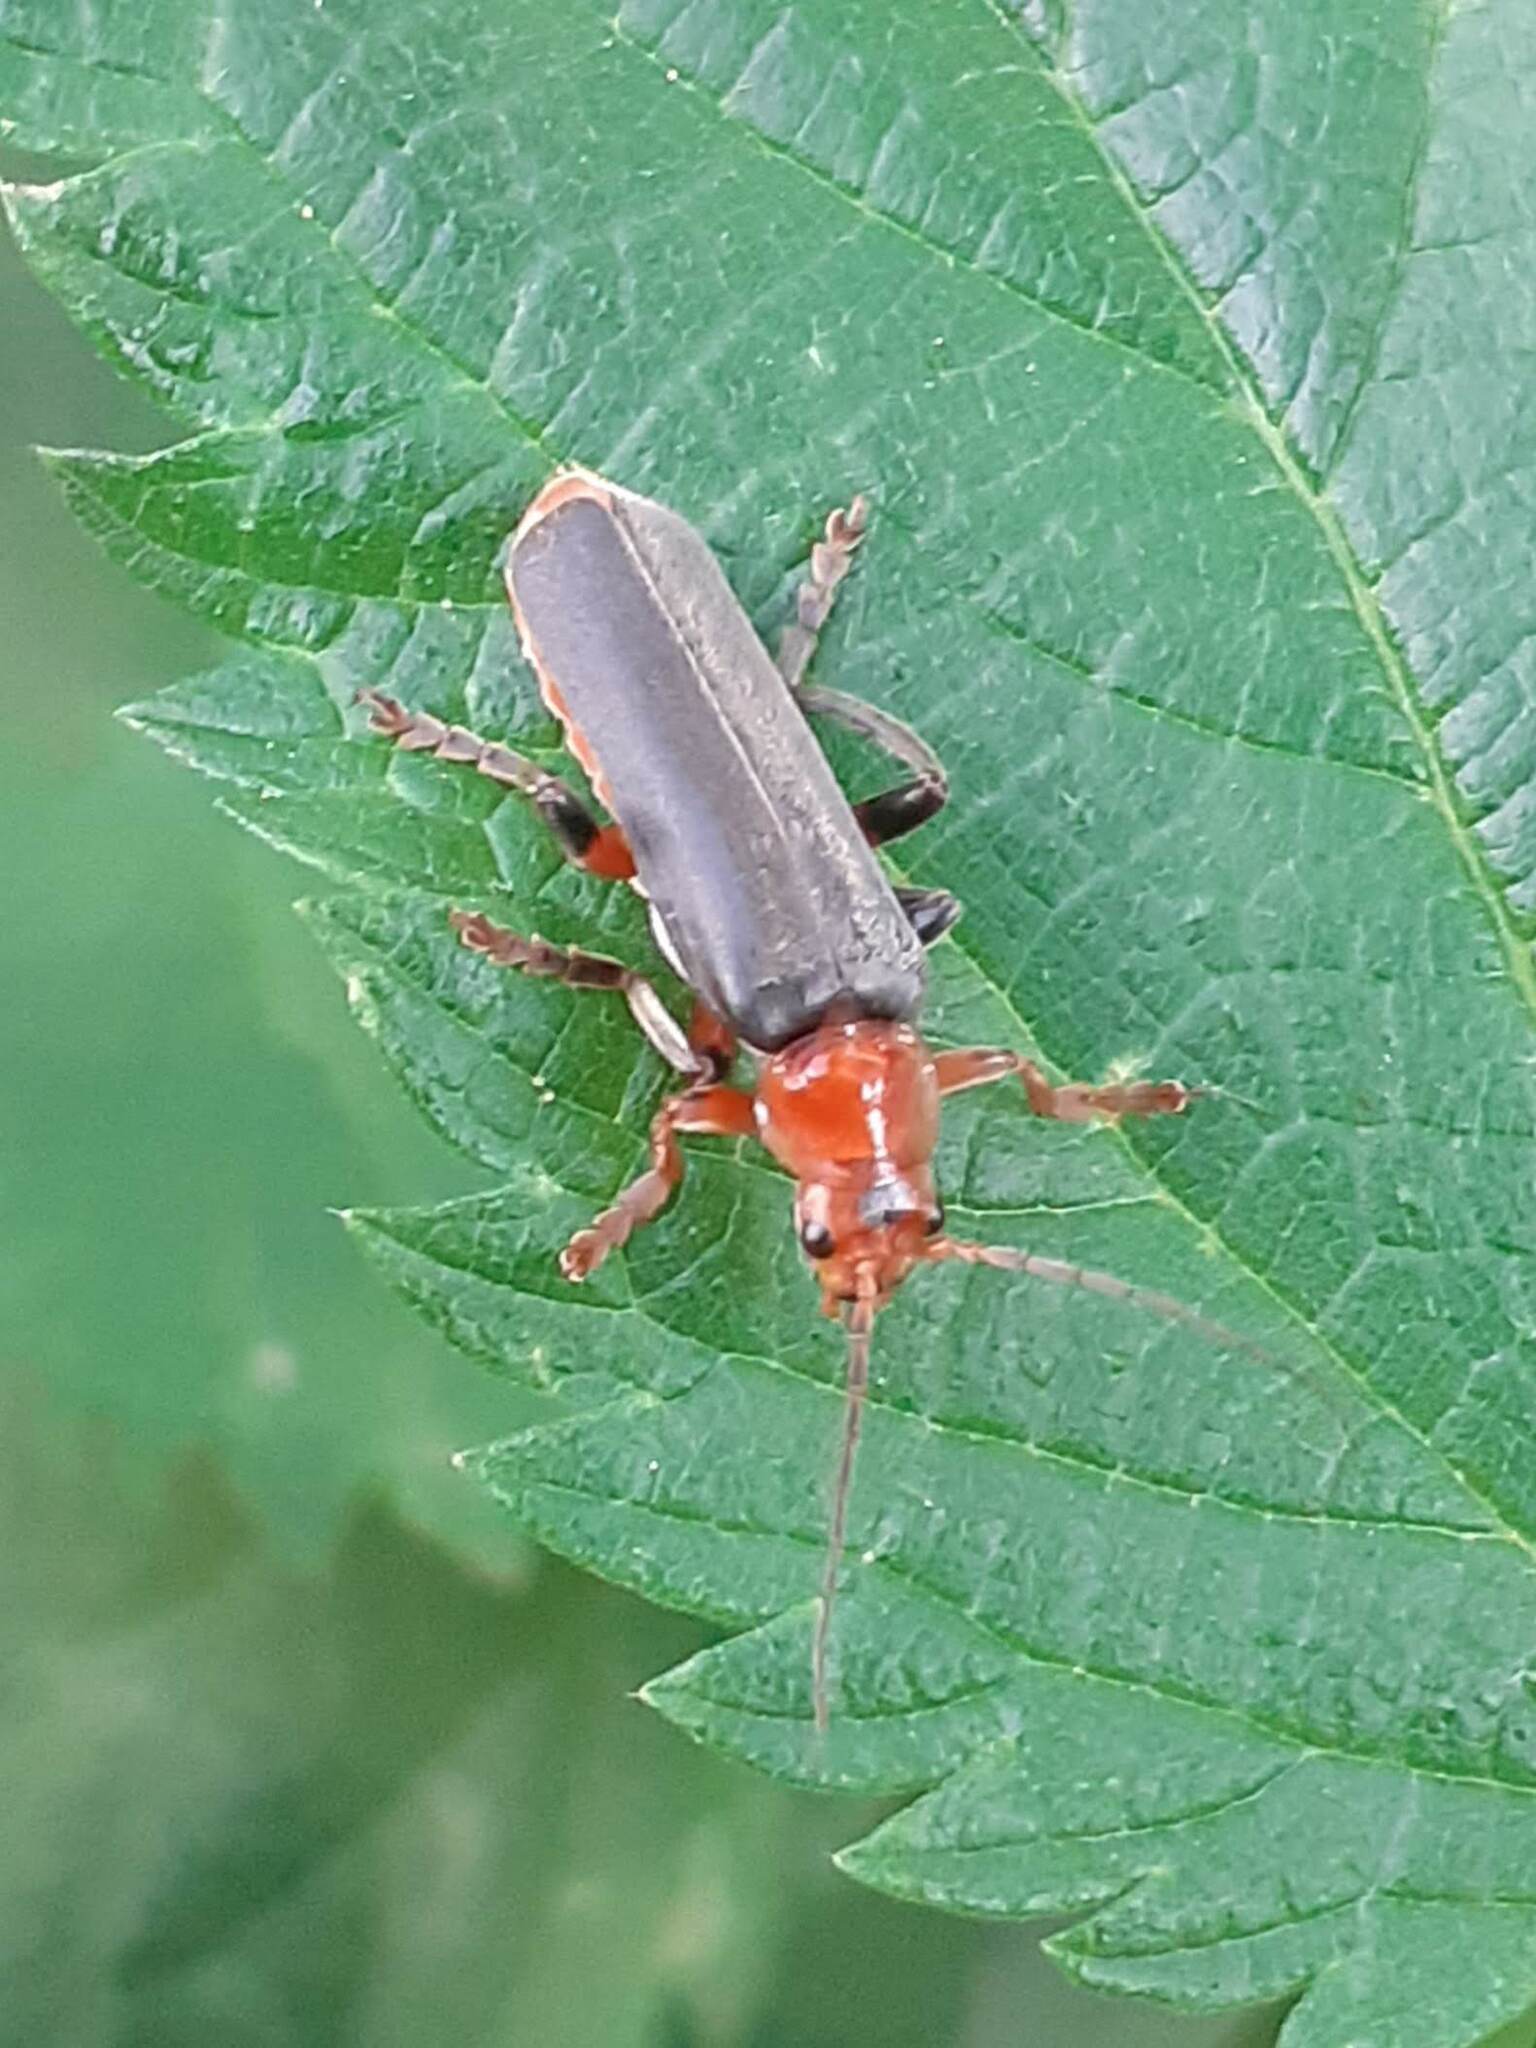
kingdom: Animalia
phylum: Arthropoda
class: Insecta
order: Coleoptera
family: Cantharidae
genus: Cantharis
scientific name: Cantharis livida
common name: Livid soldier beetle
